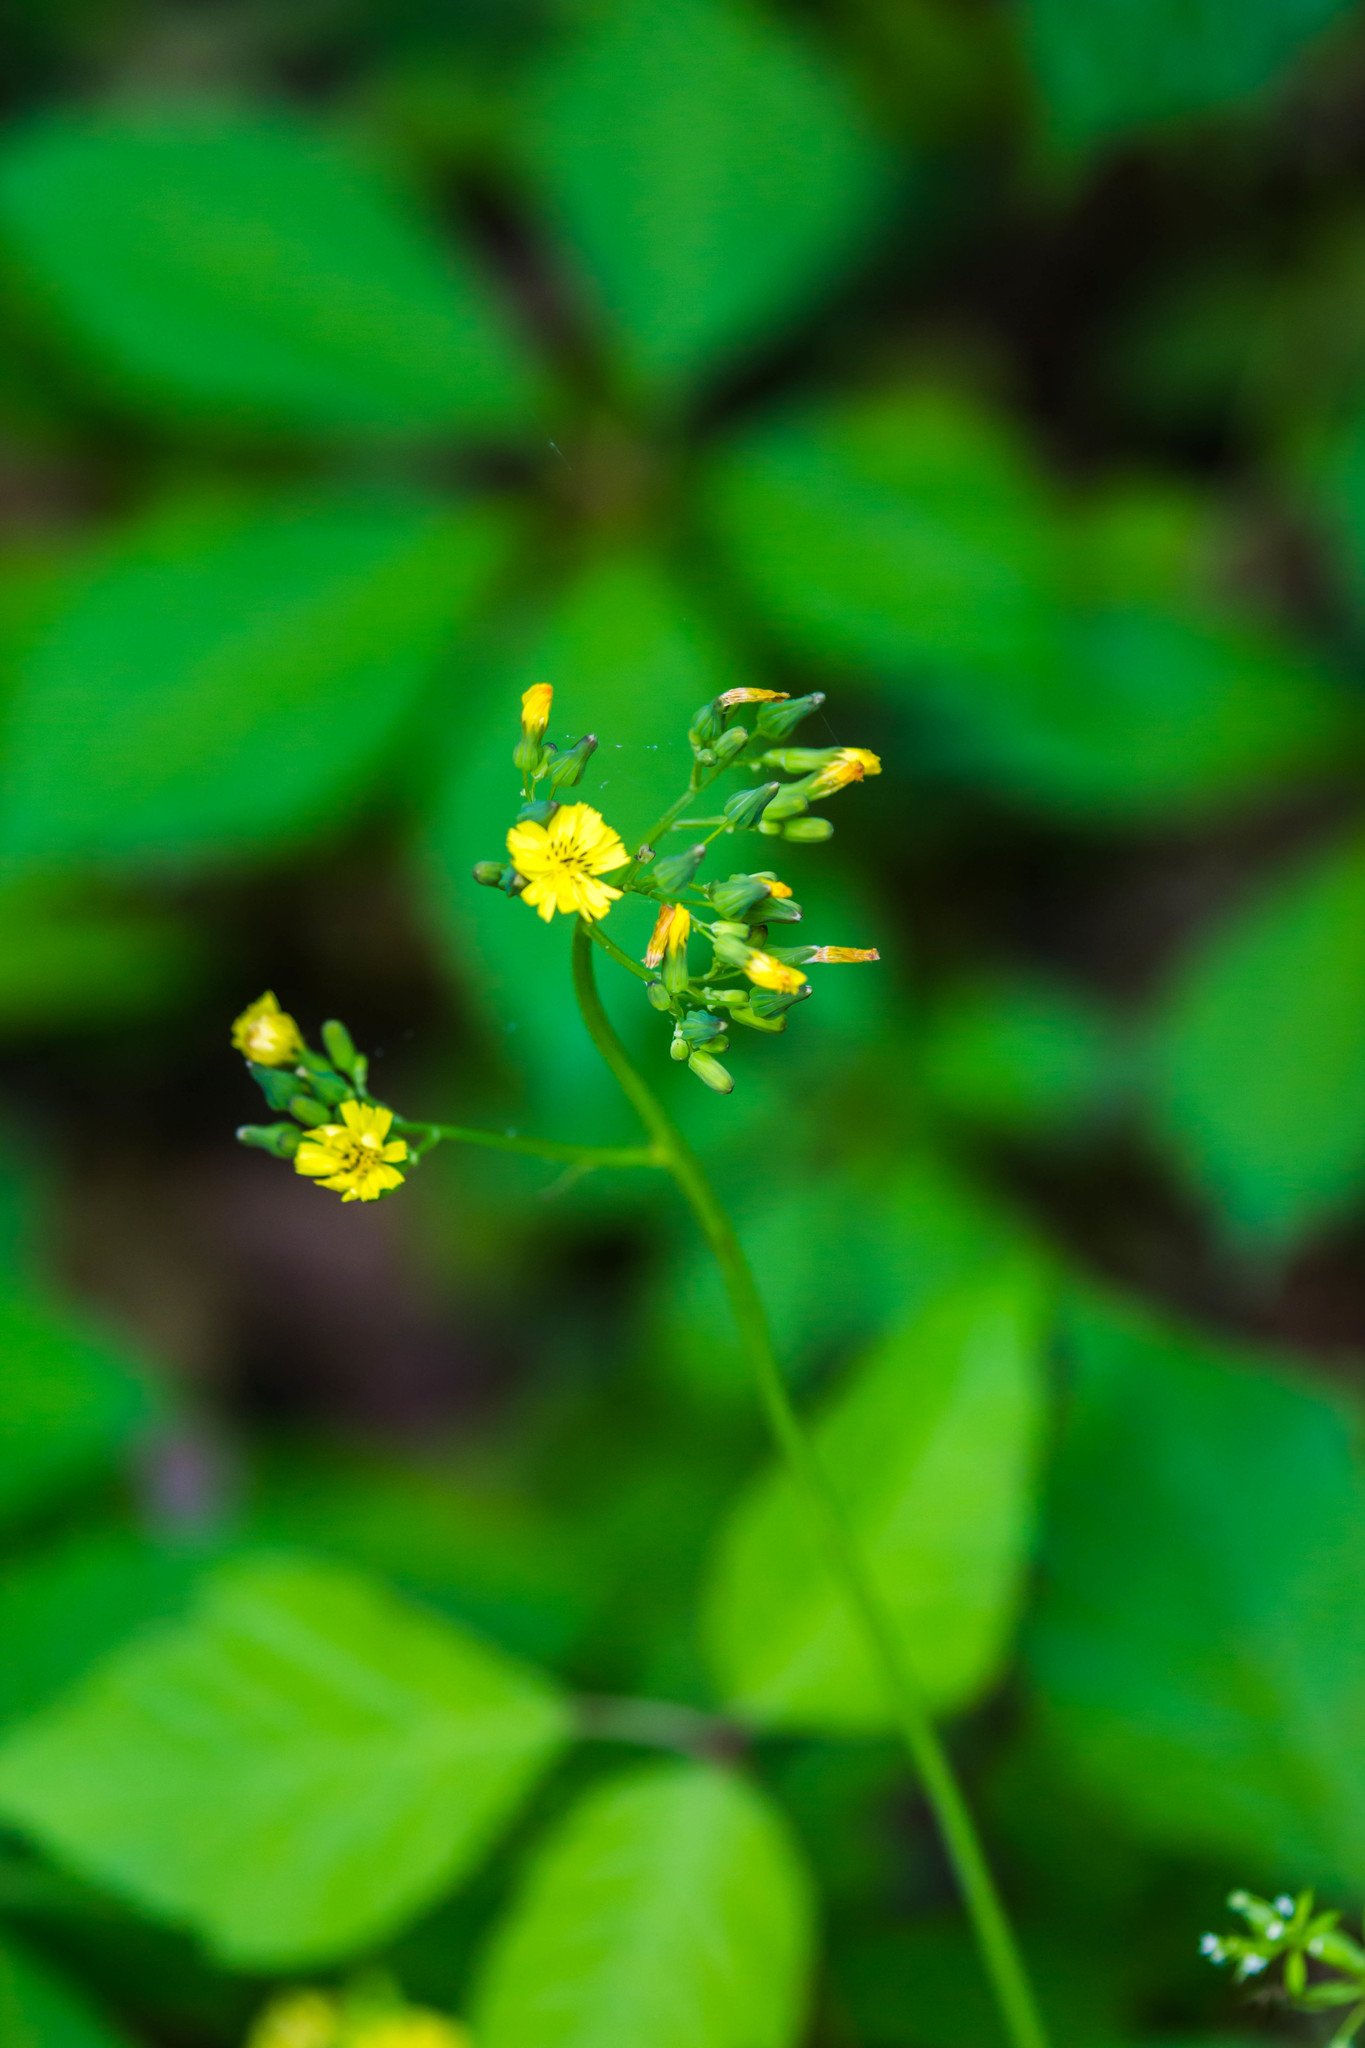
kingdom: Plantae
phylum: Tracheophyta
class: Magnoliopsida
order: Asterales
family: Asteraceae
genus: Youngia
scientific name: Youngia japonica
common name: Oriental false hawksbeard
